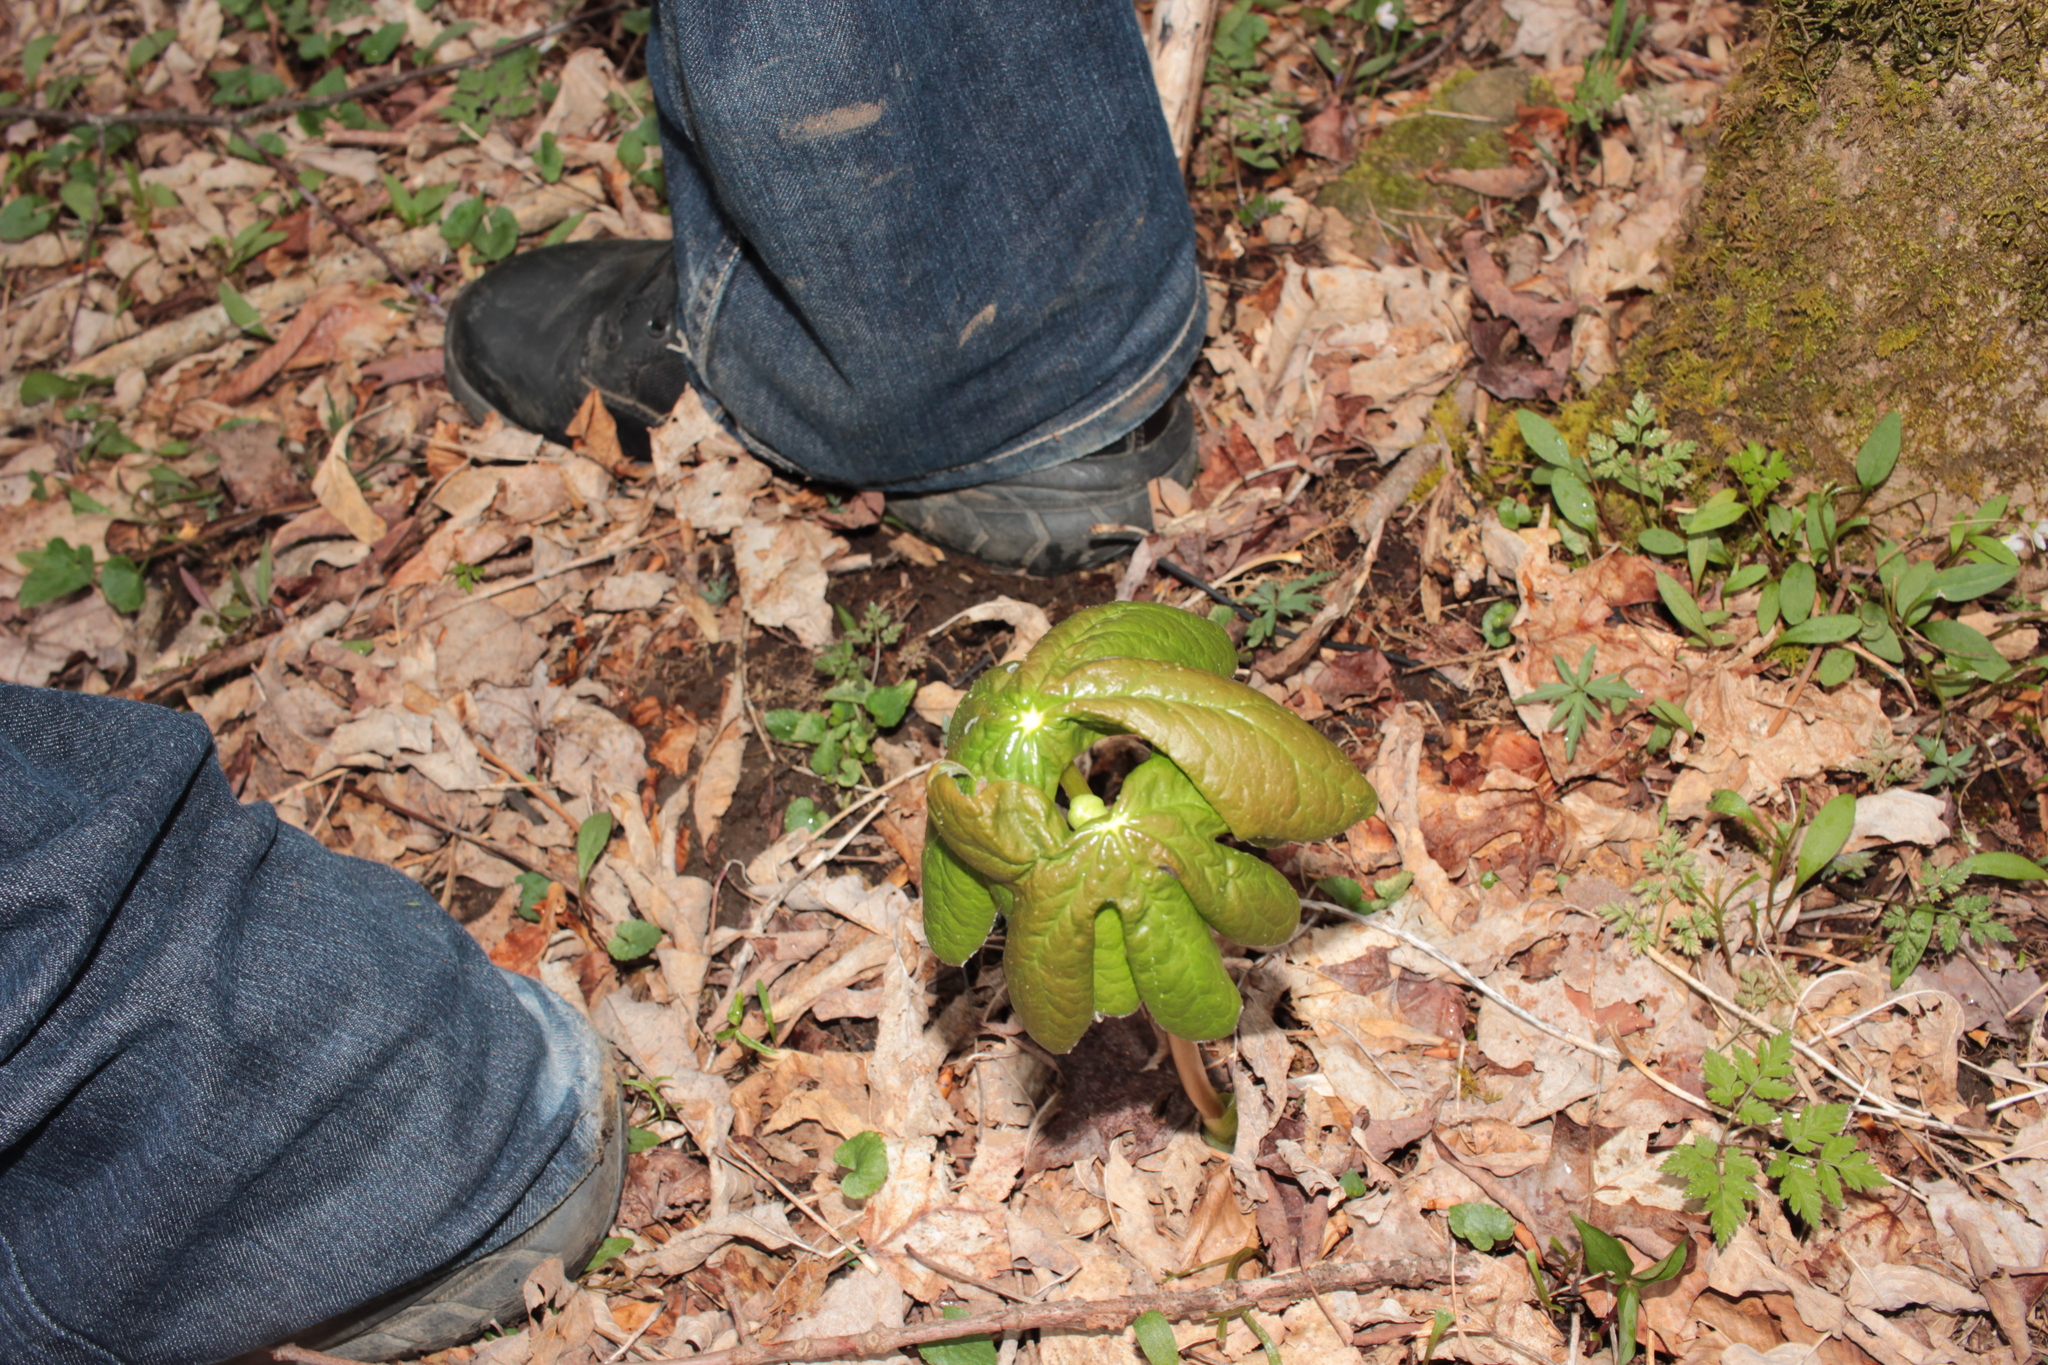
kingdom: Plantae
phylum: Tracheophyta
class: Magnoliopsida
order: Ranunculales
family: Berberidaceae
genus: Podophyllum
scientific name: Podophyllum peltatum
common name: Wild mandrake
